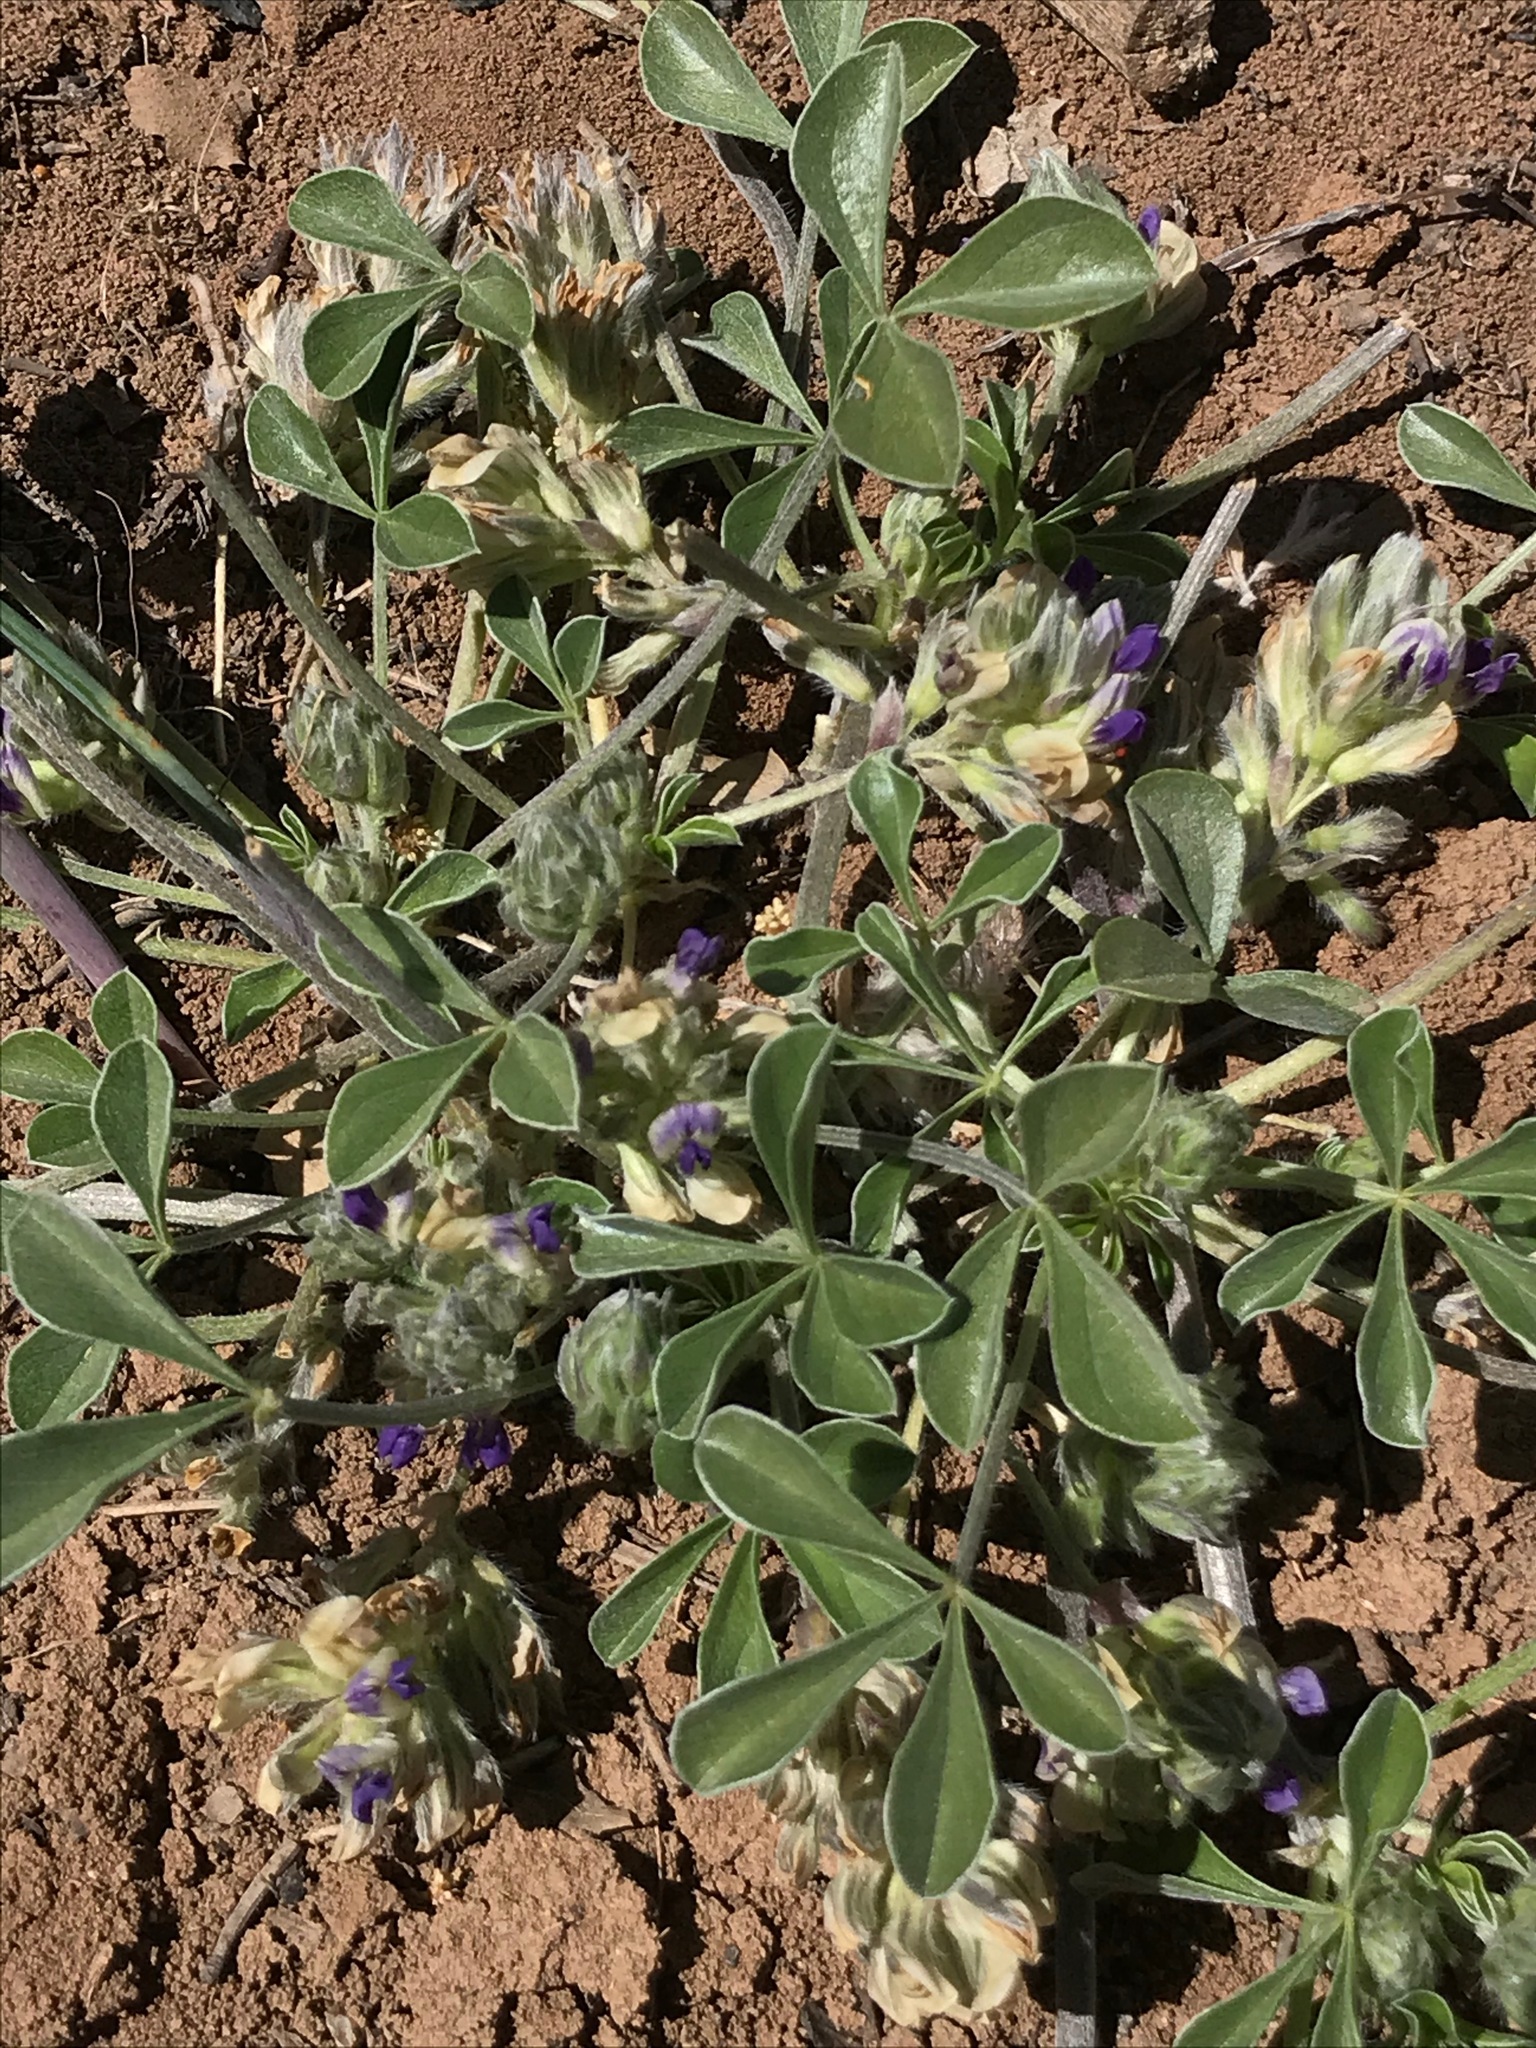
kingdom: Plantae
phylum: Tracheophyta
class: Magnoliopsida
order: Fabales
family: Fabaceae
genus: Pediomelum
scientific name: Pediomelum californicum
